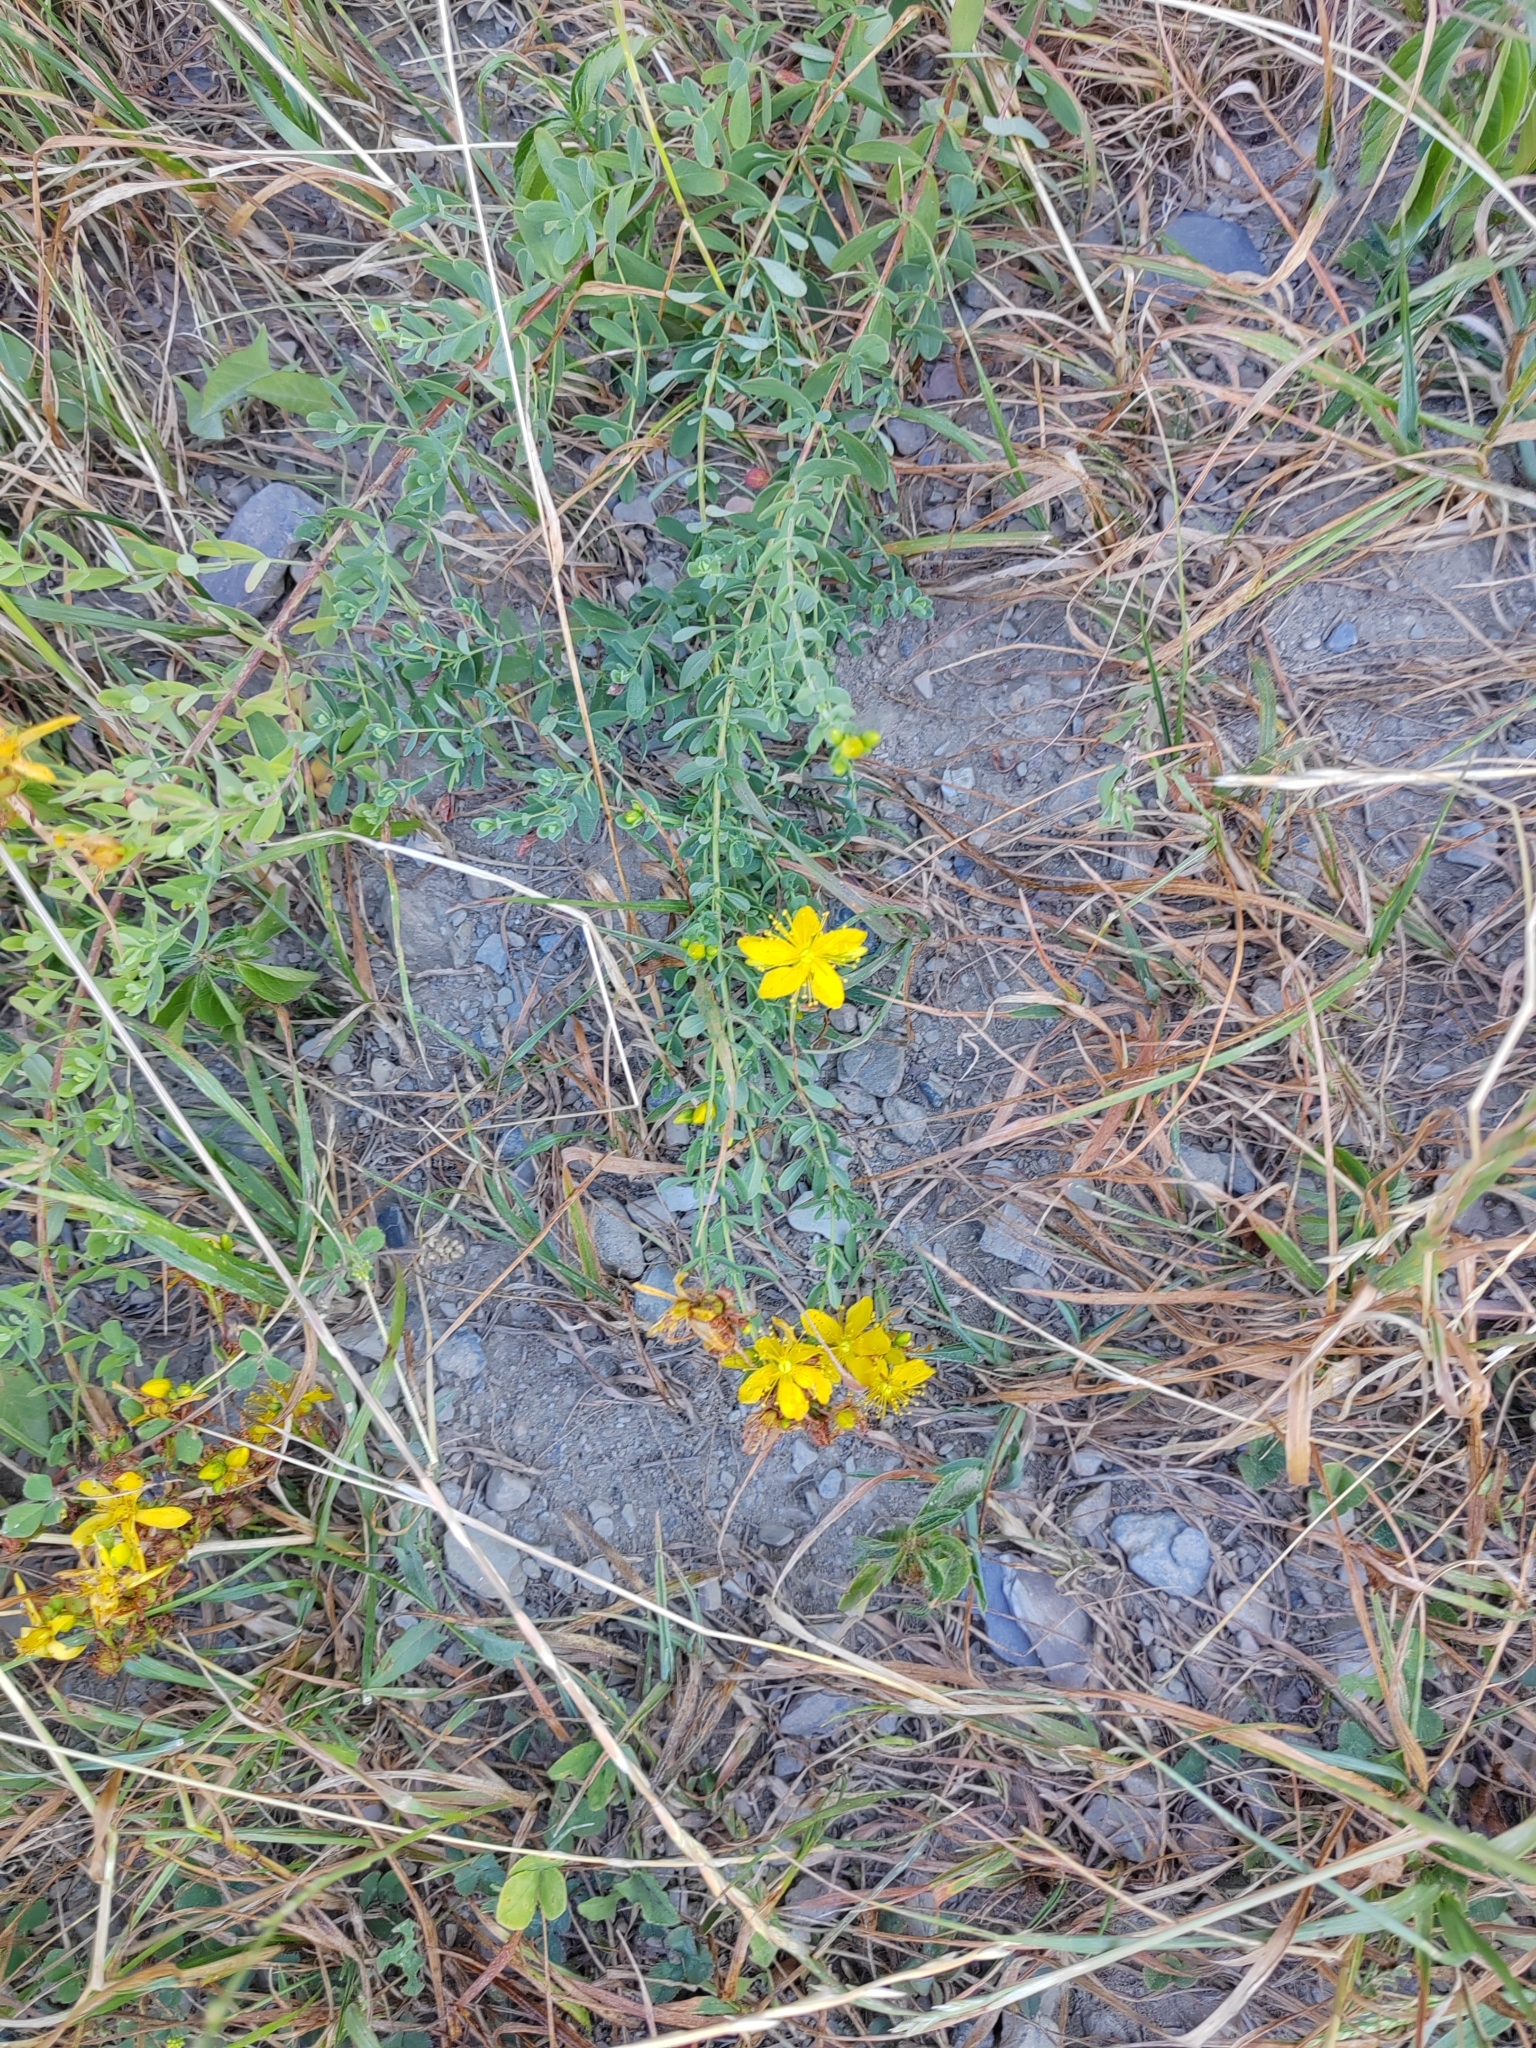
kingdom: Plantae
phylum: Tracheophyta
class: Magnoliopsida
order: Malpighiales
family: Hypericaceae
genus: Hypericum
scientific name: Hypericum perforatum
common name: Common st. johnswort
